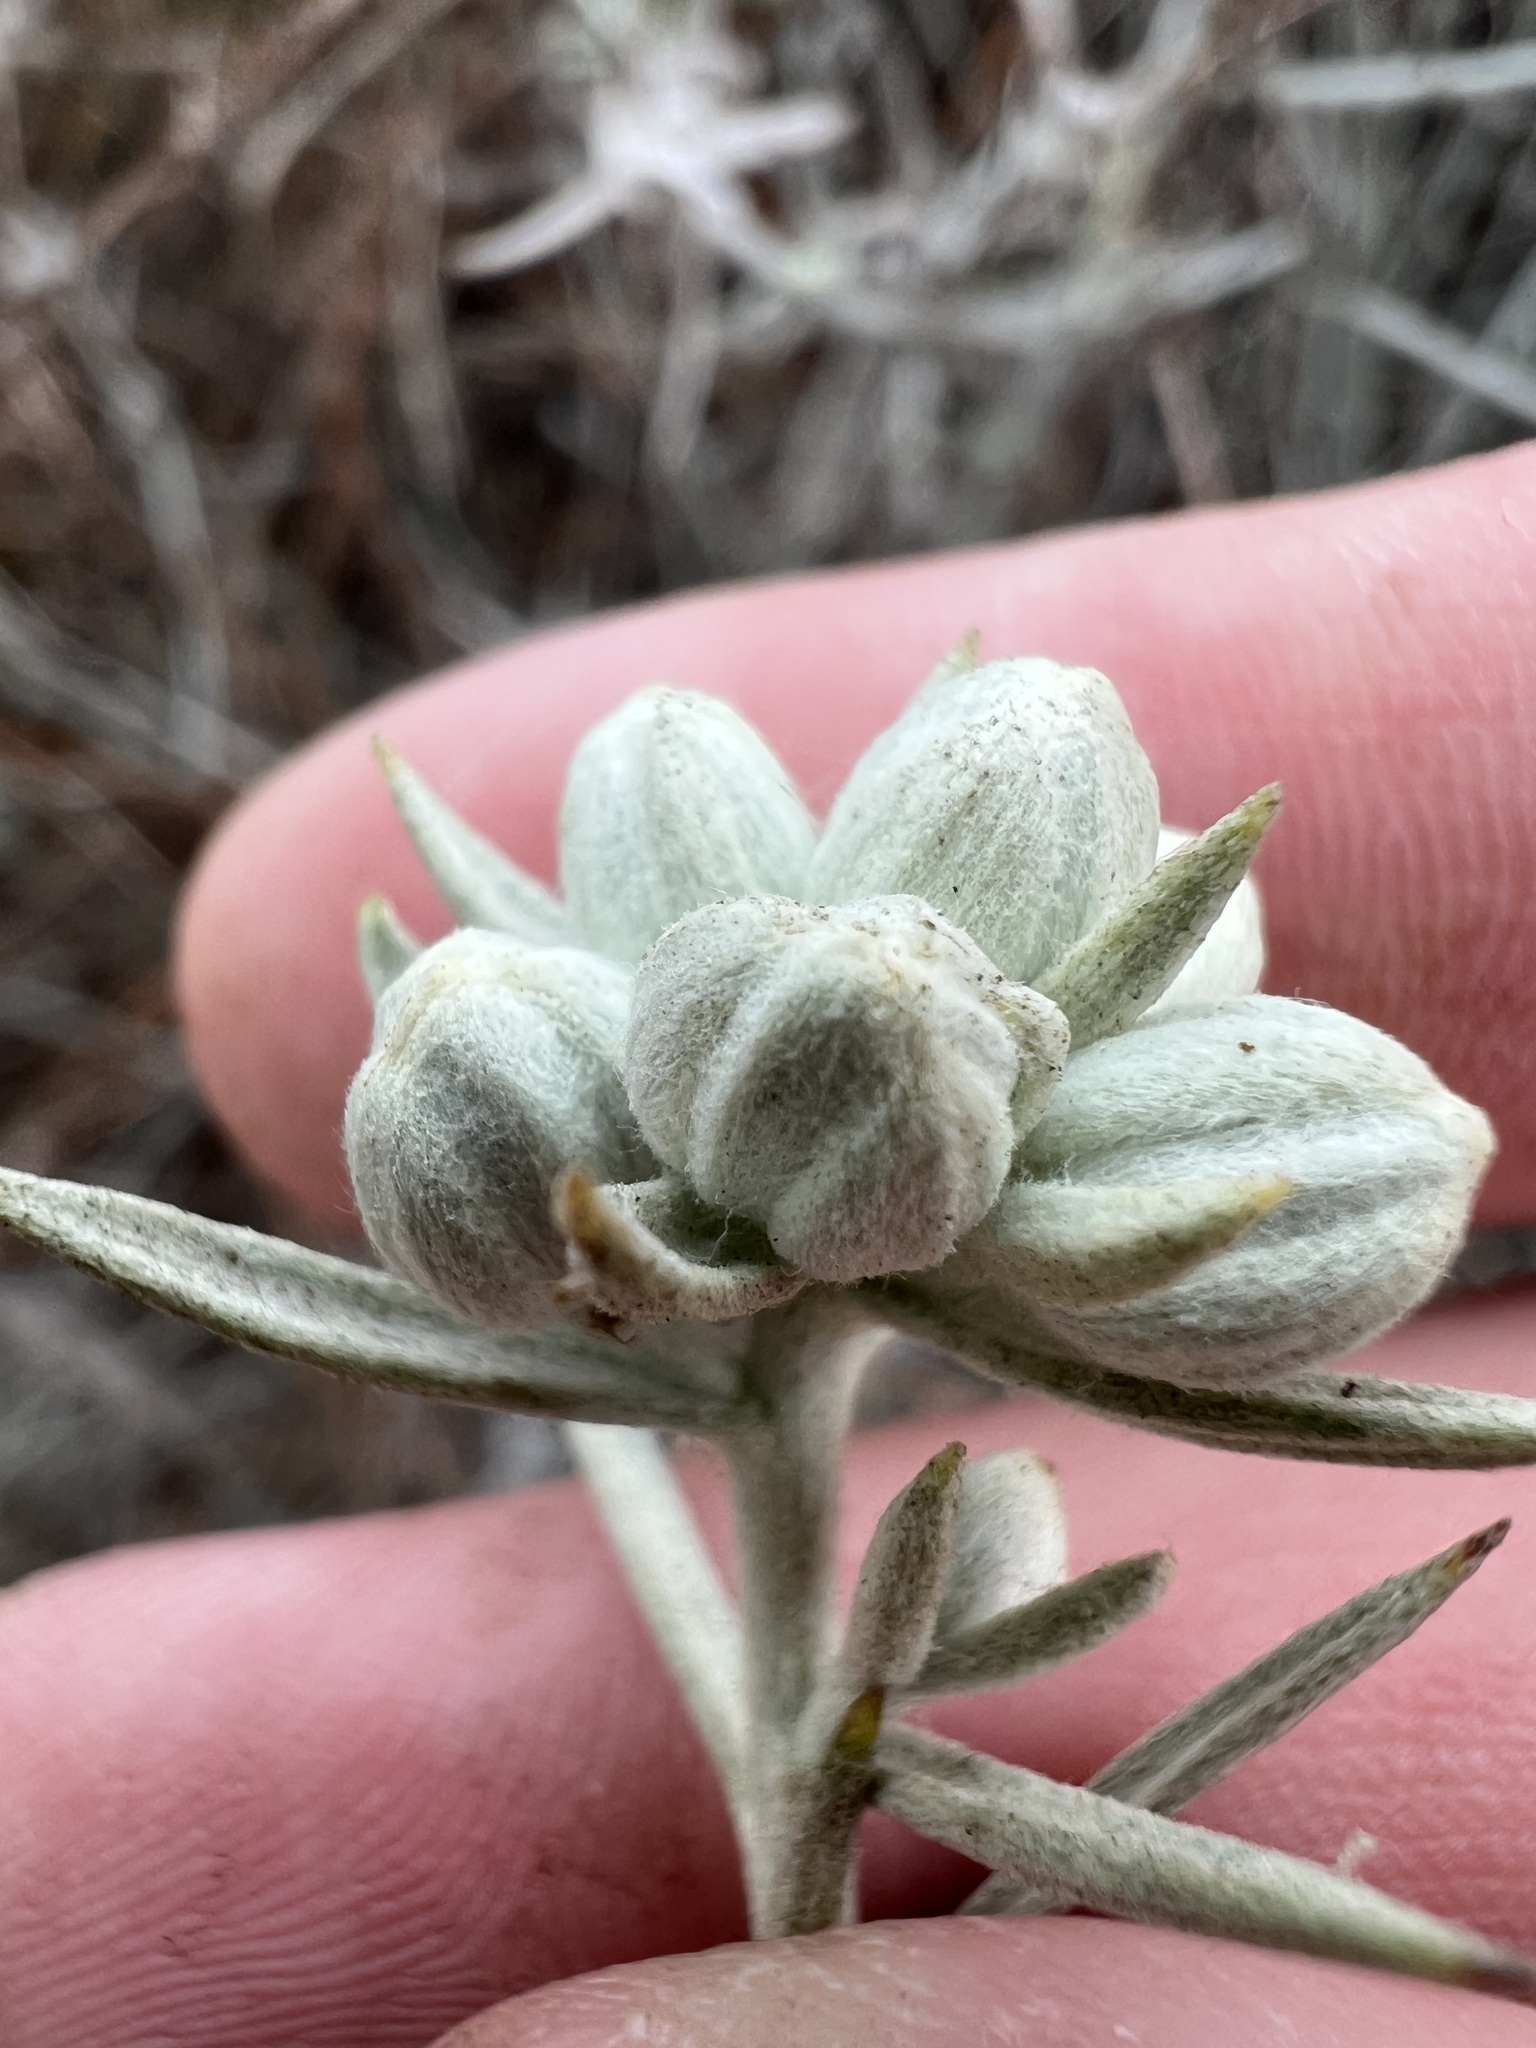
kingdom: Plantae
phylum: Tracheophyta
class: Magnoliopsida
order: Asterales
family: Asteraceae
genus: Tetradymia
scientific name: Tetradymia comosa
